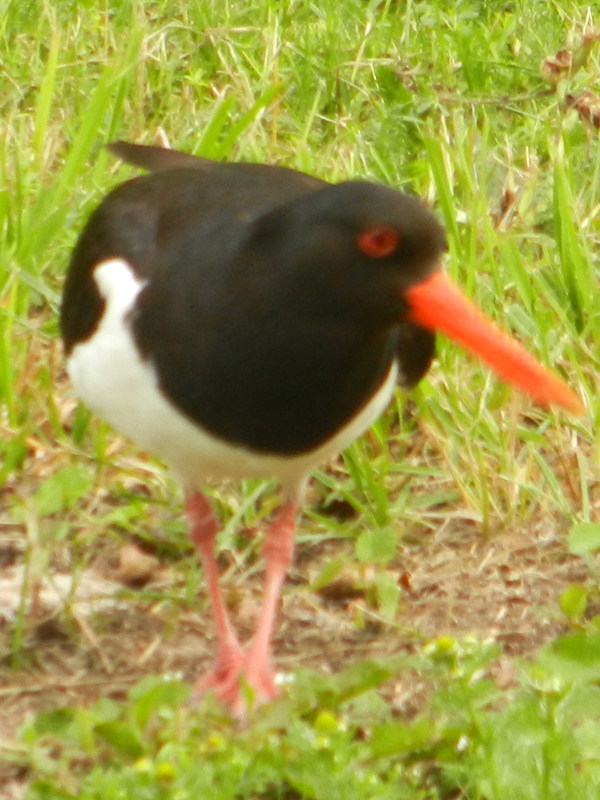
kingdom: Animalia
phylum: Chordata
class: Aves
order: Charadriiformes
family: Haematopodidae
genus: Haematopus
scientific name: Haematopus ostralegus
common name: Eurasian oystercatcher
